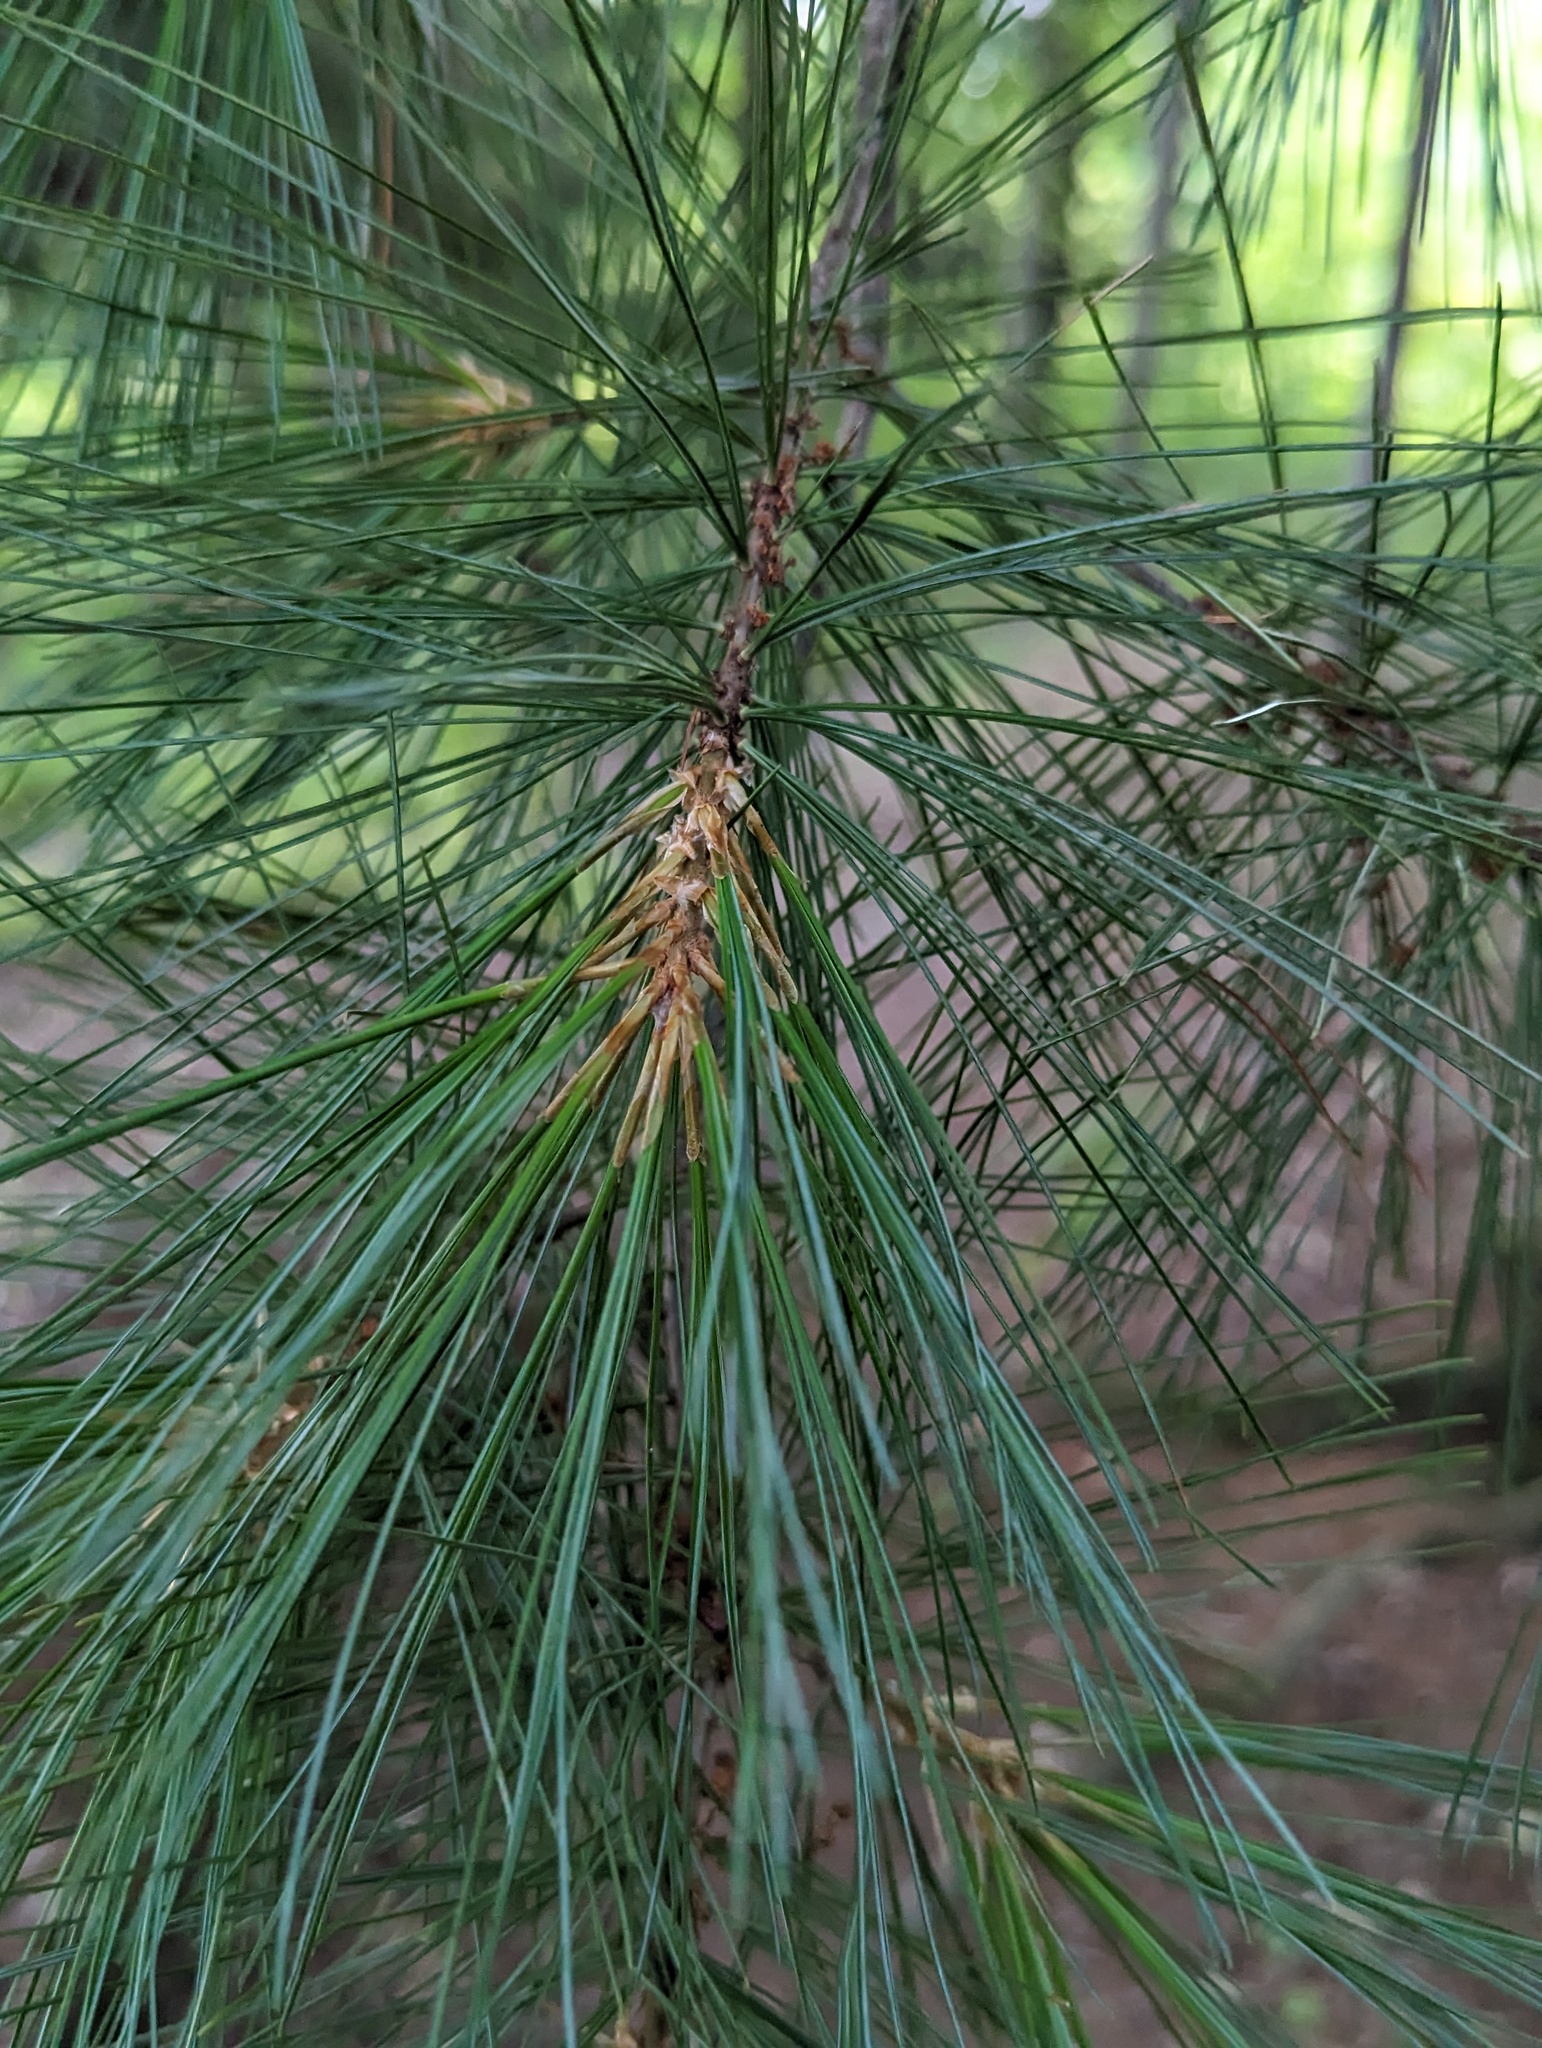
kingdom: Plantae
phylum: Tracheophyta
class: Pinopsida
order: Pinales
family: Pinaceae
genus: Pinus
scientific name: Pinus strobus
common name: Weymouth pine
